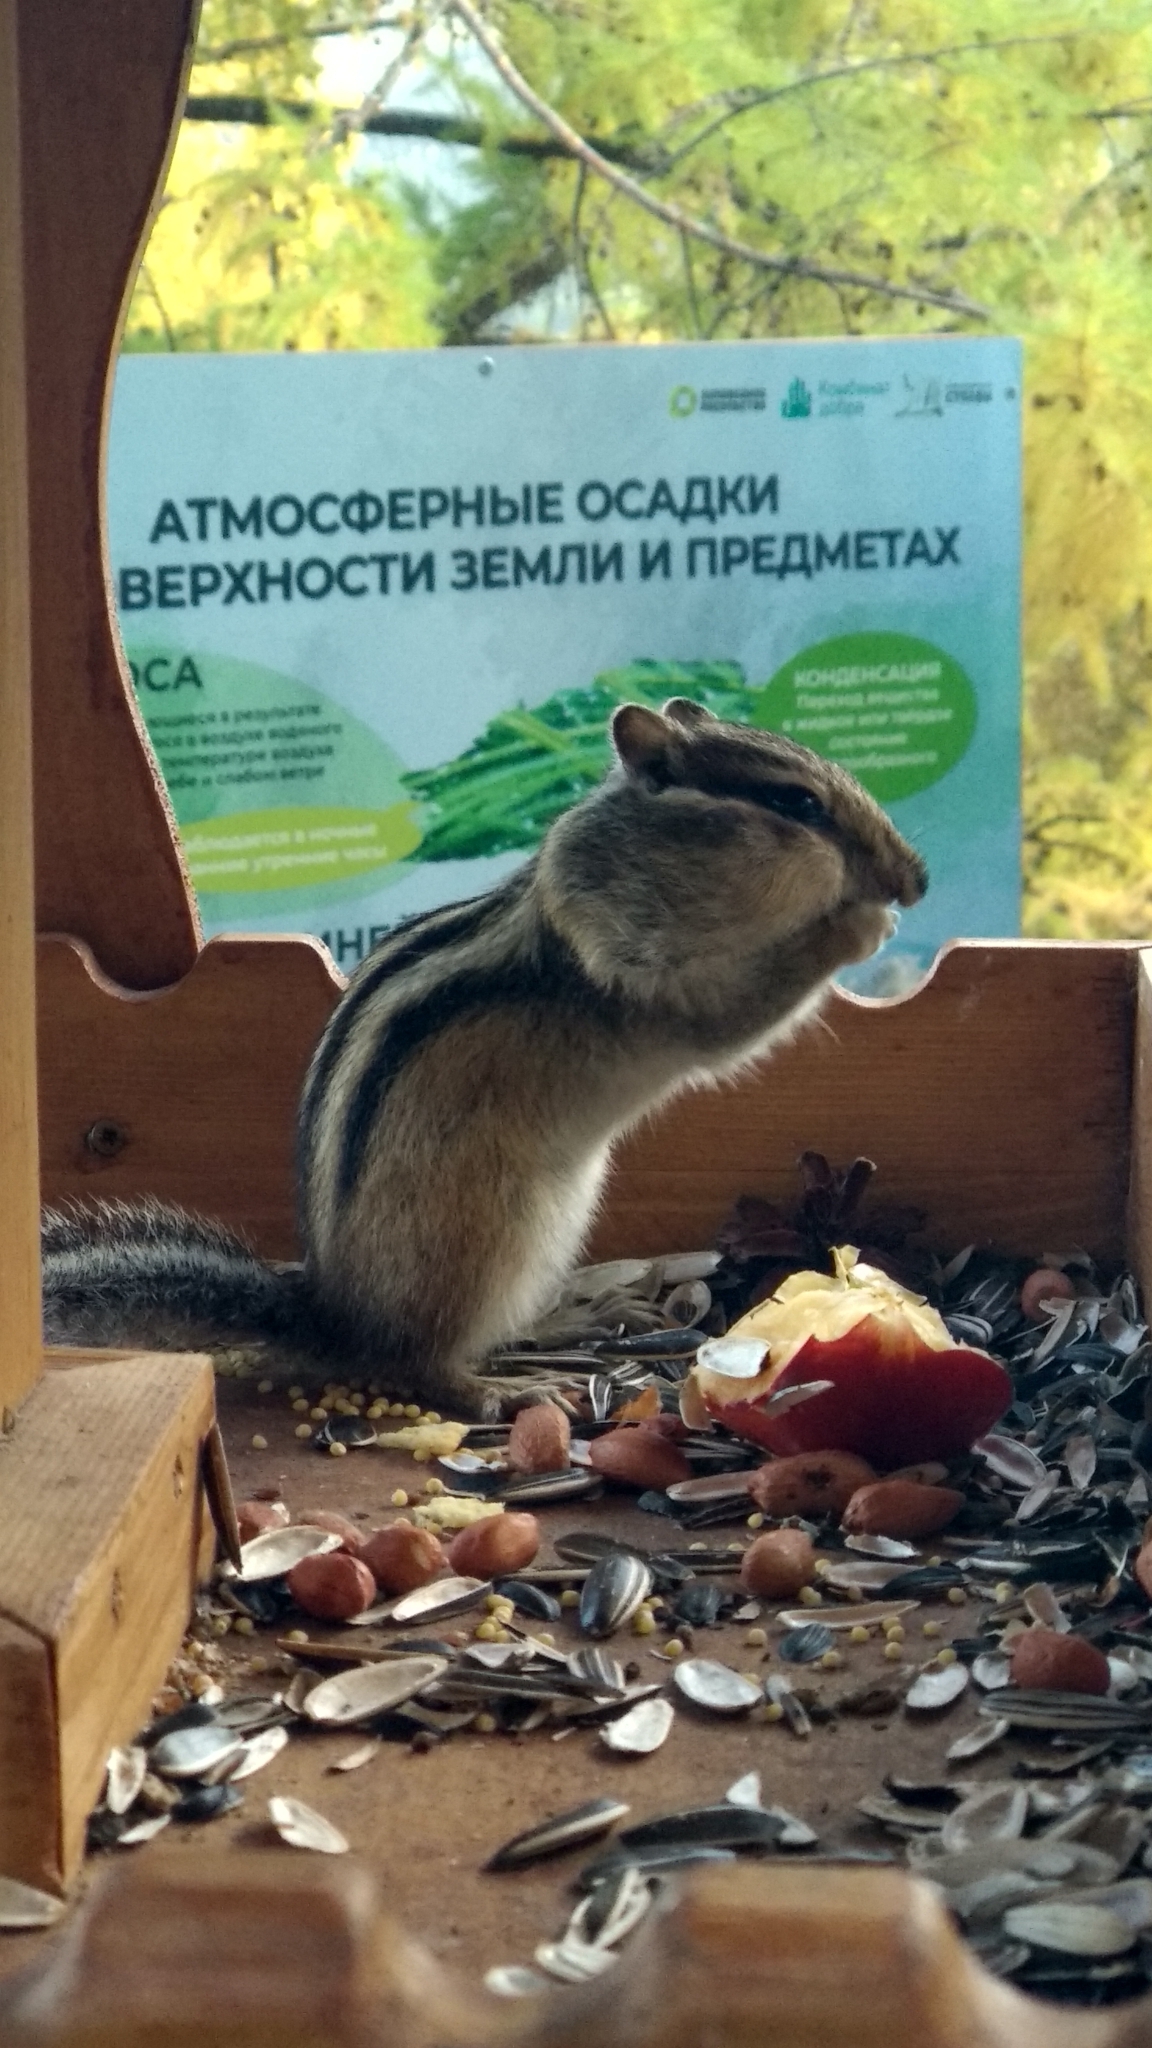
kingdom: Animalia
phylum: Chordata
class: Mammalia
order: Rodentia
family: Sciuridae
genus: Tamias
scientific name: Tamias sibiricus
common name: Siberian chipmunk
